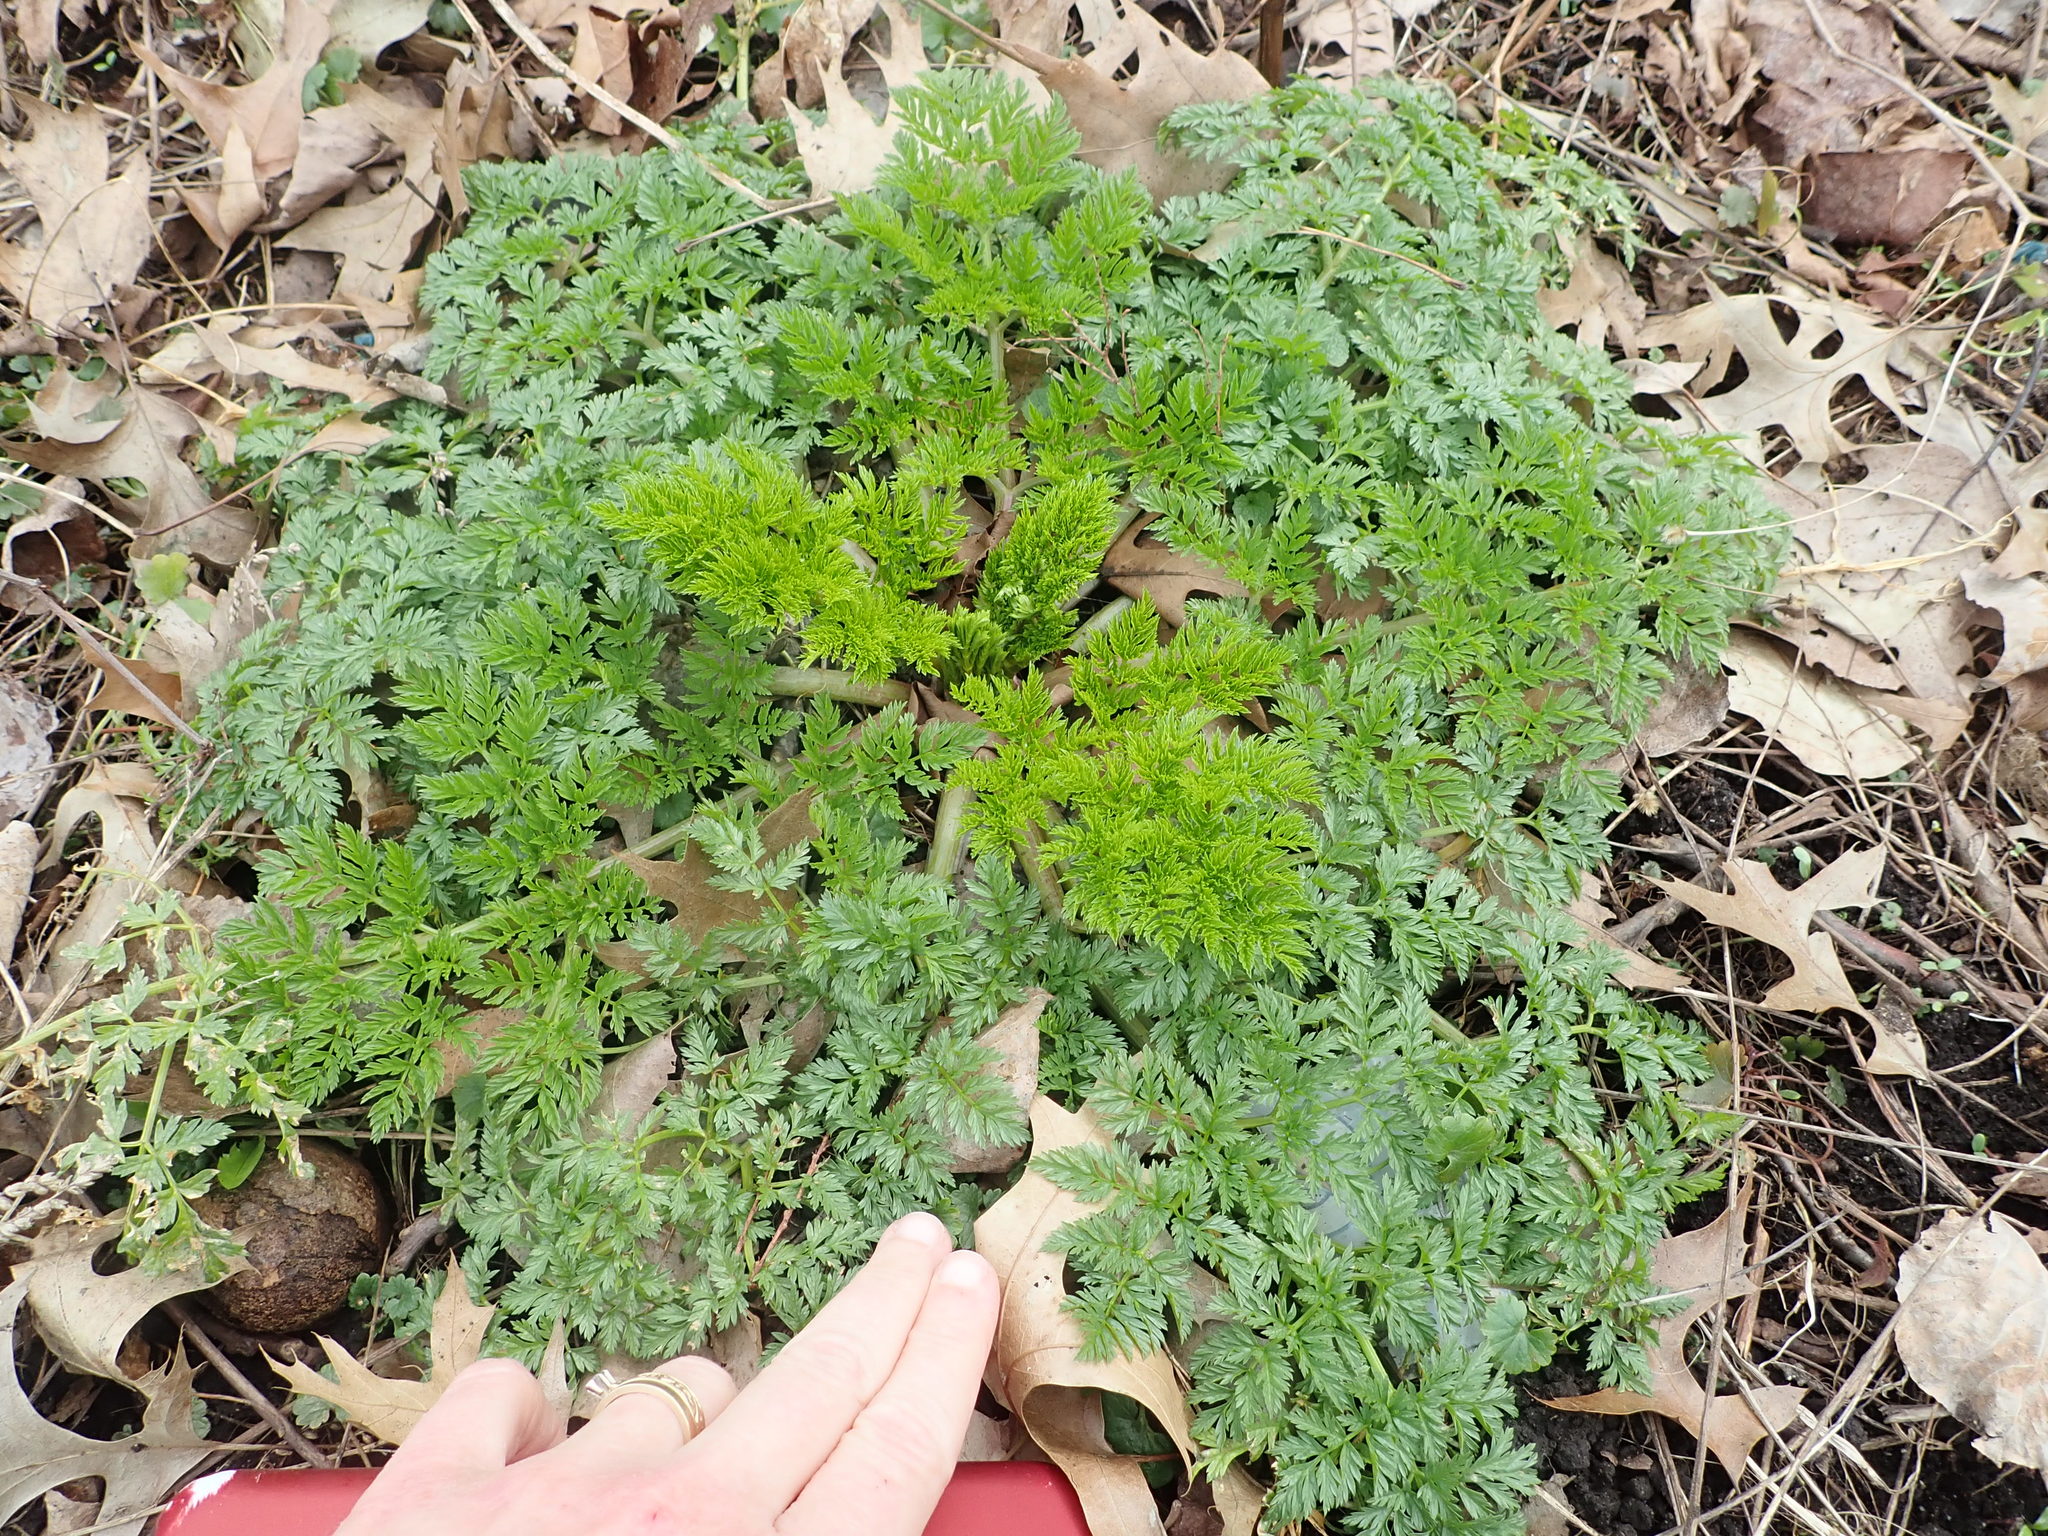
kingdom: Plantae
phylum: Tracheophyta
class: Magnoliopsida
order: Apiales
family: Apiaceae
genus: Conium
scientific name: Conium maculatum
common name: Hemlock
